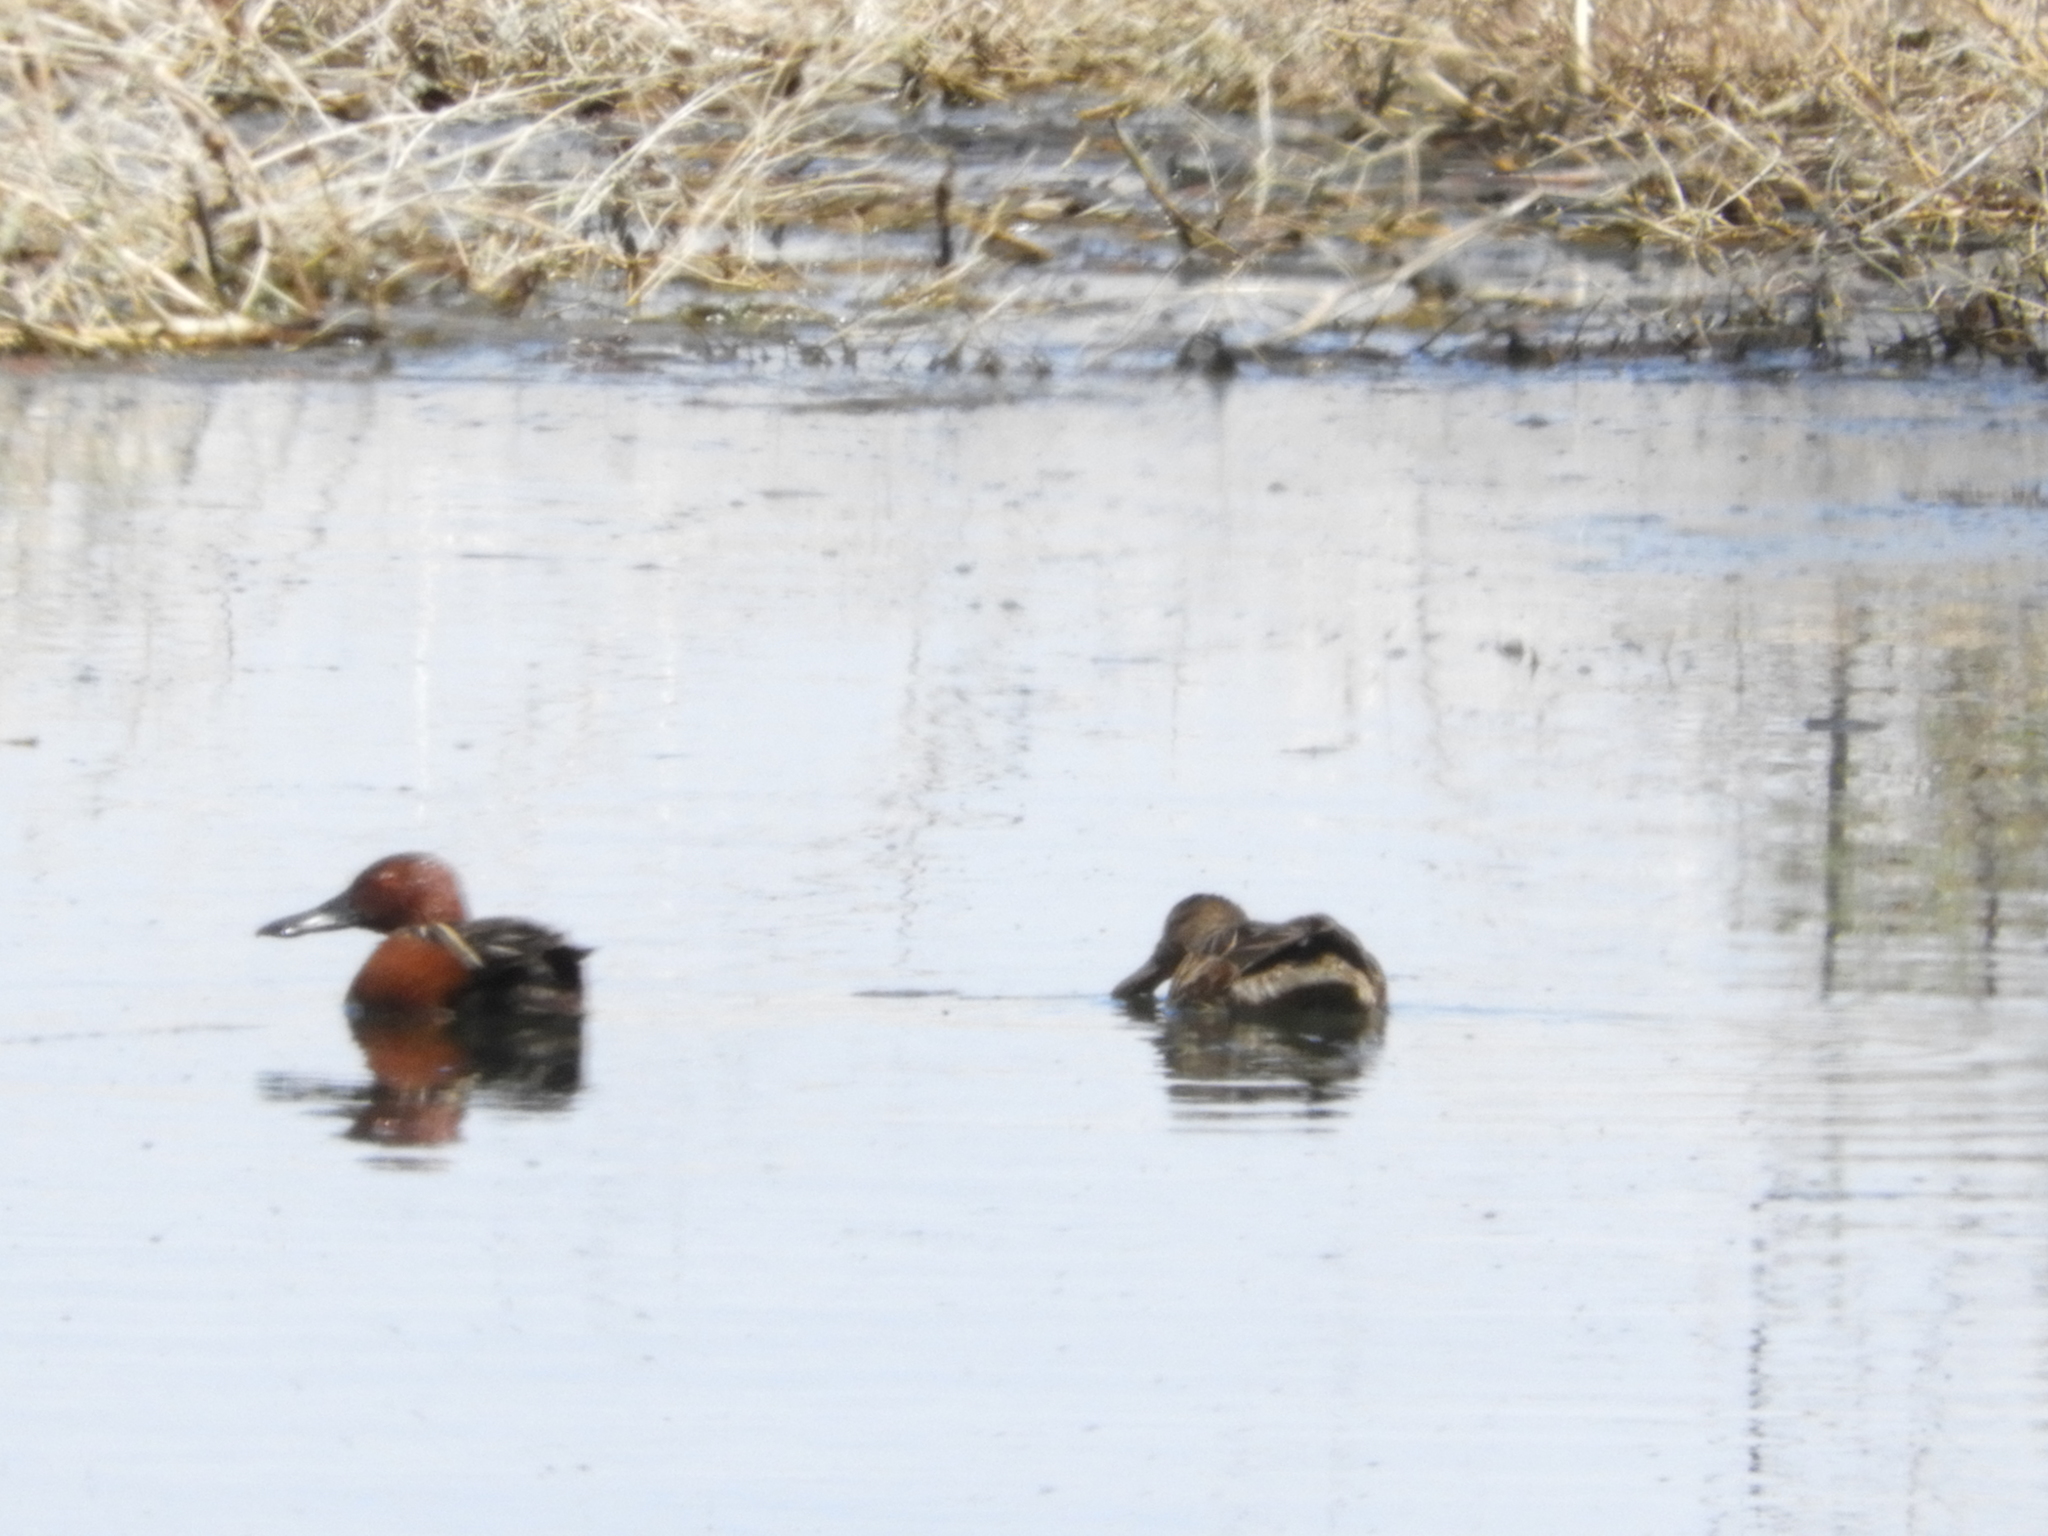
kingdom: Animalia
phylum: Chordata
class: Aves
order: Anseriformes
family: Anatidae
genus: Spatula
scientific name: Spatula cyanoptera
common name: Cinnamon teal
